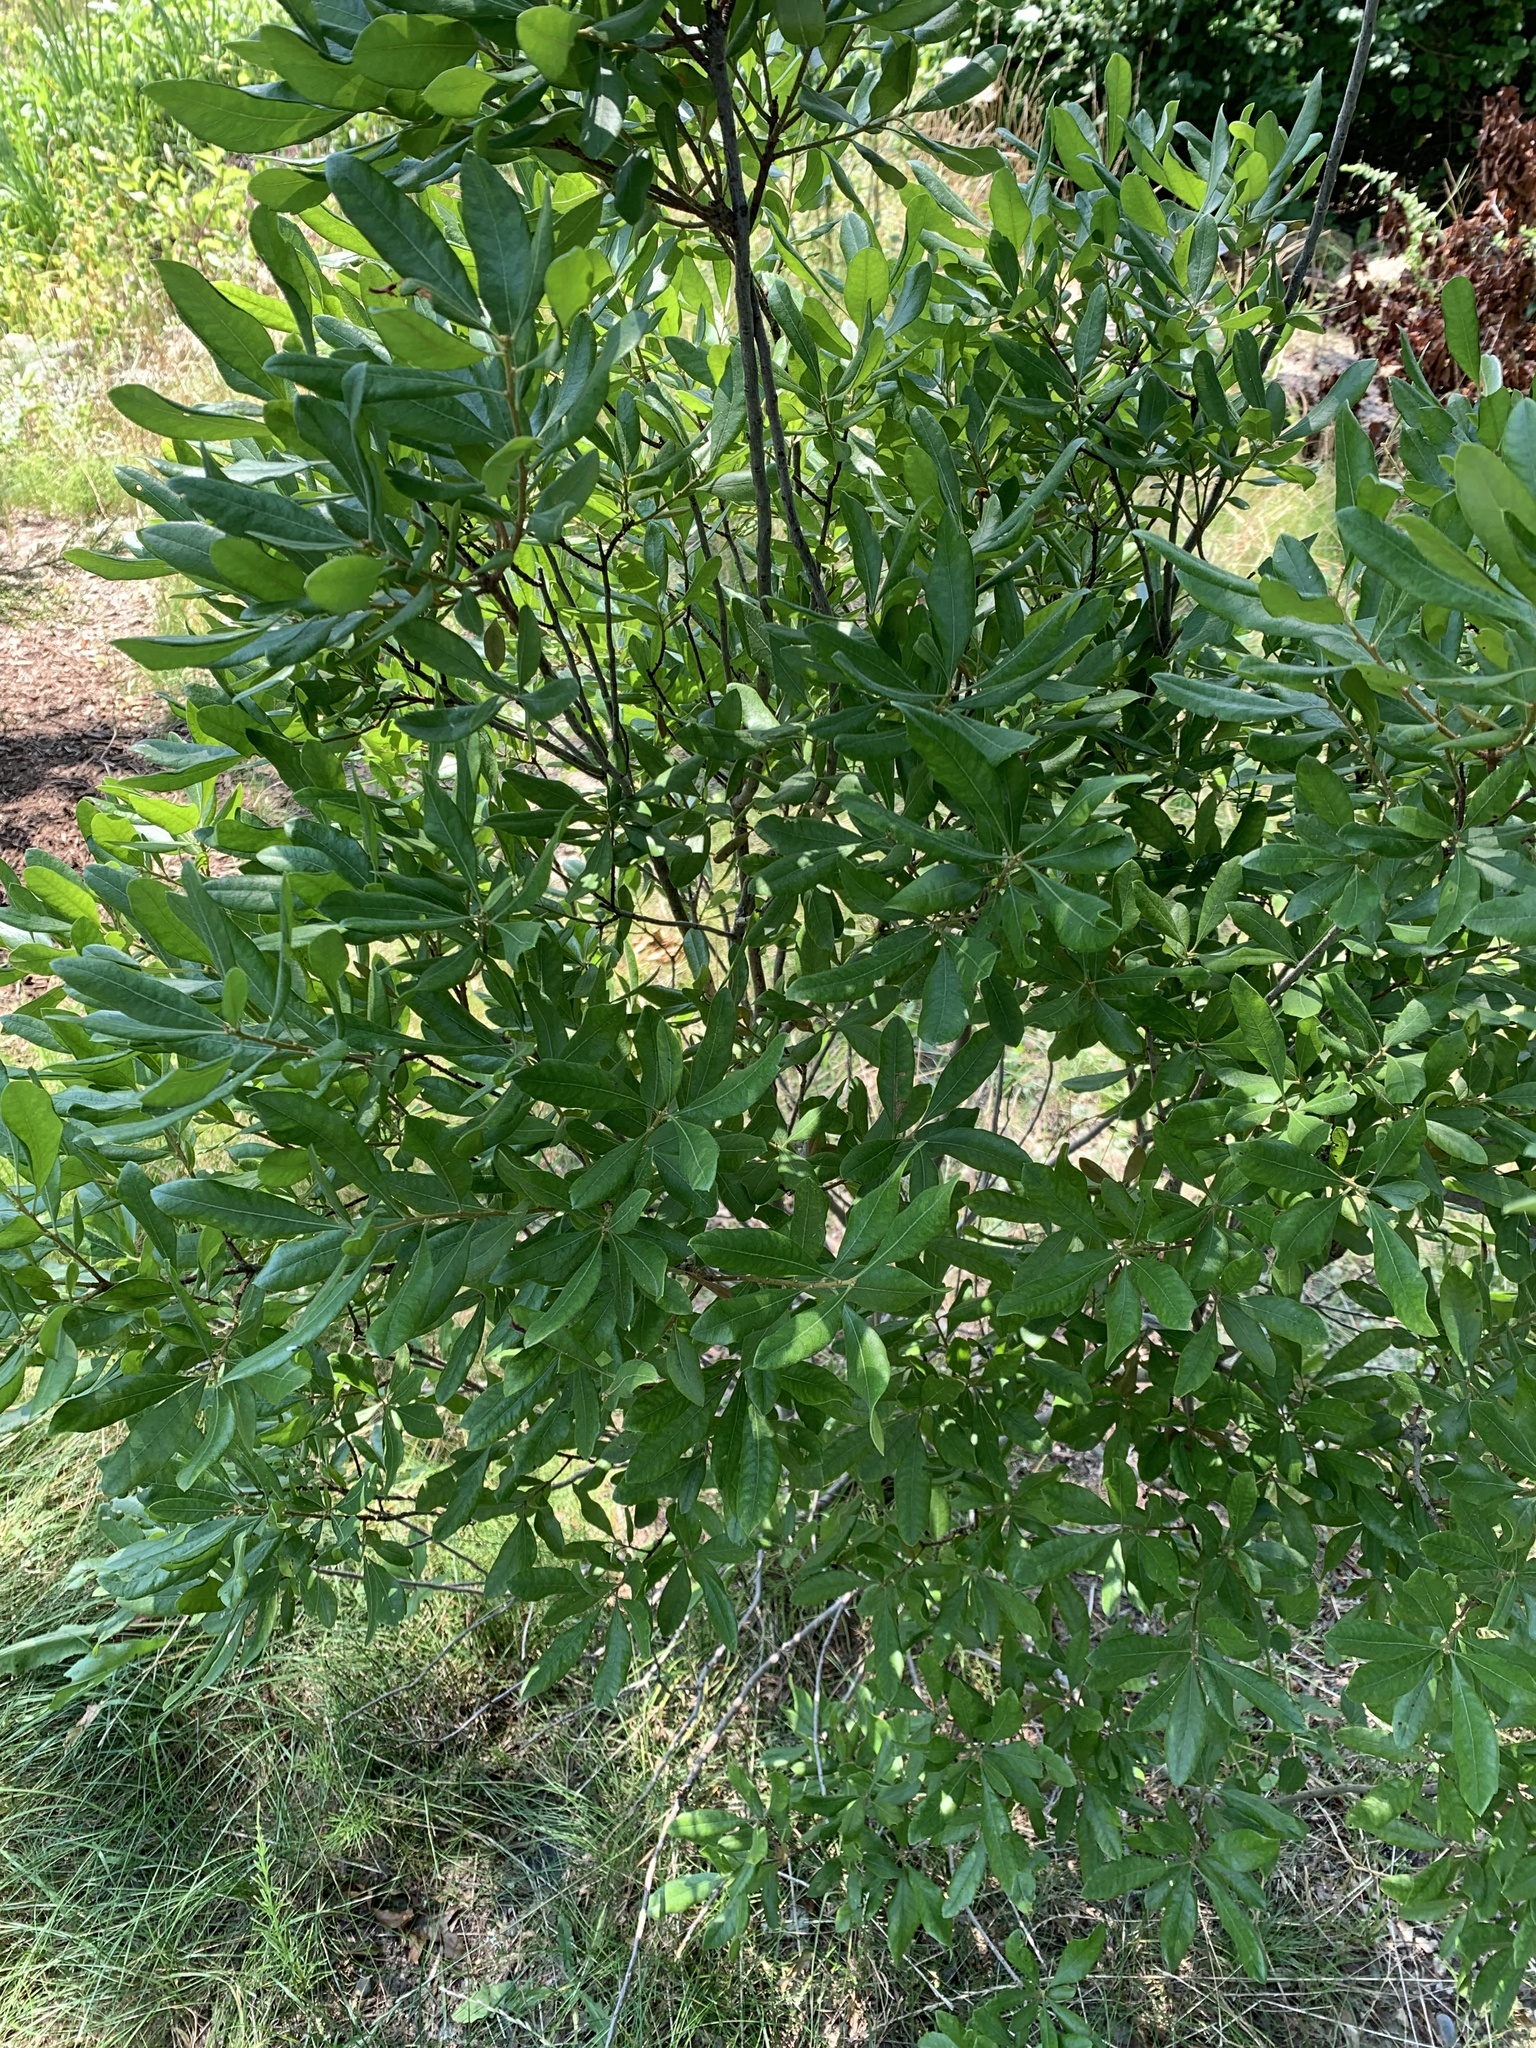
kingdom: Plantae
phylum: Tracheophyta
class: Magnoliopsida
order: Fagales
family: Myricaceae
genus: Morella
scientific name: Morella pensylvanica
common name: Northern bayberry
